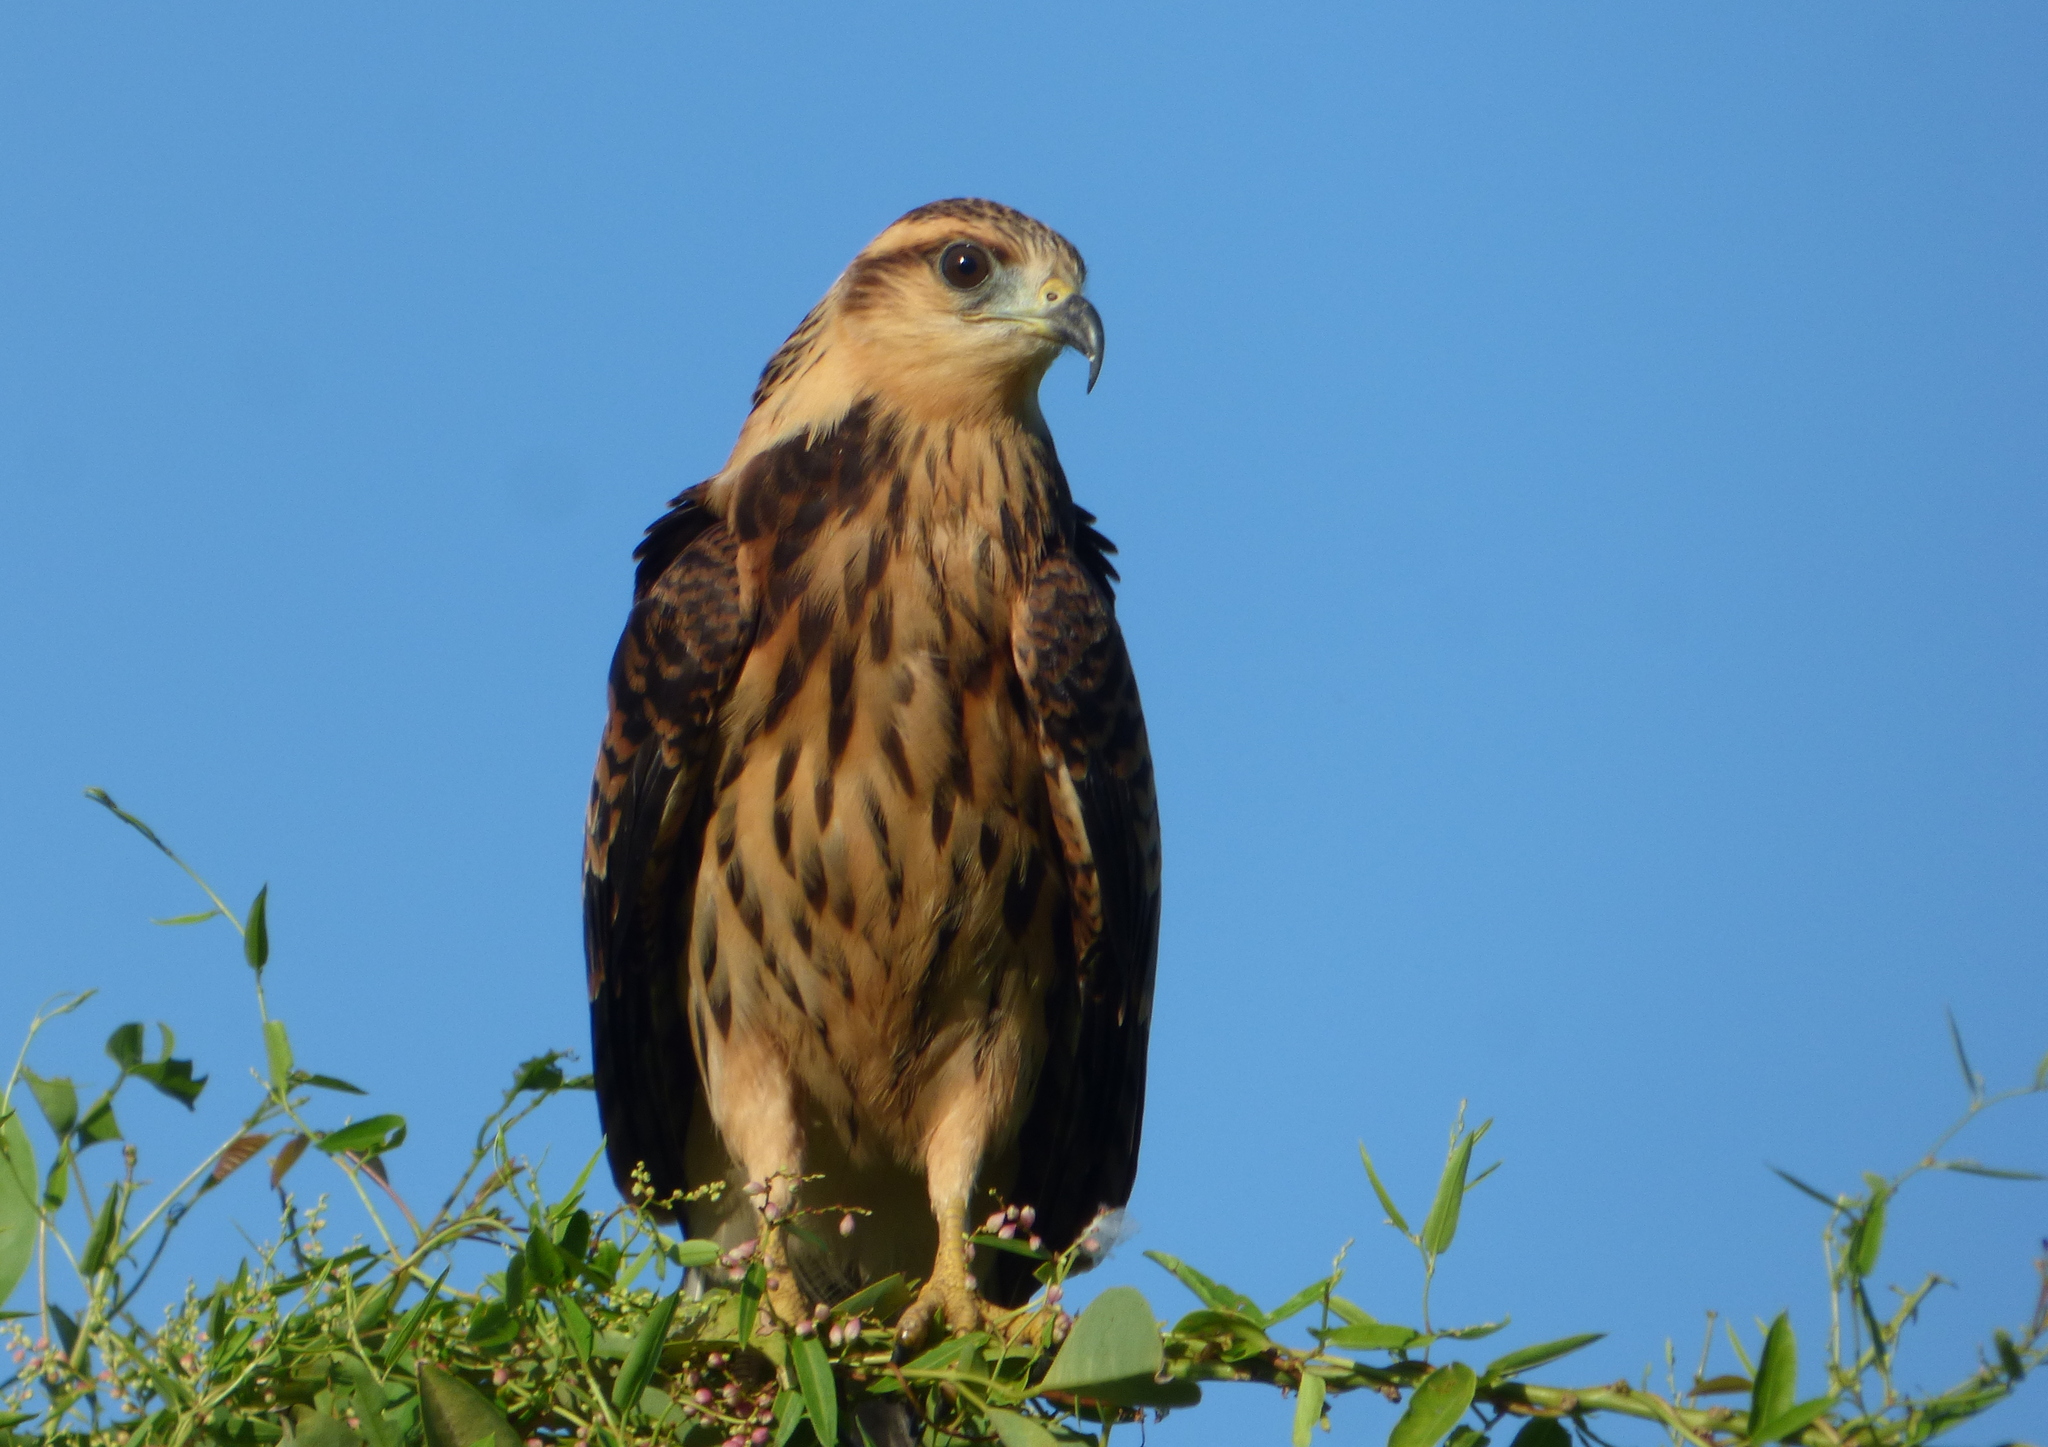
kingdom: Animalia
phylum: Chordata
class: Aves
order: Accipitriformes
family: Accipitridae
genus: Rostrhamus
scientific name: Rostrhamus sociabilis
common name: Snail kite
